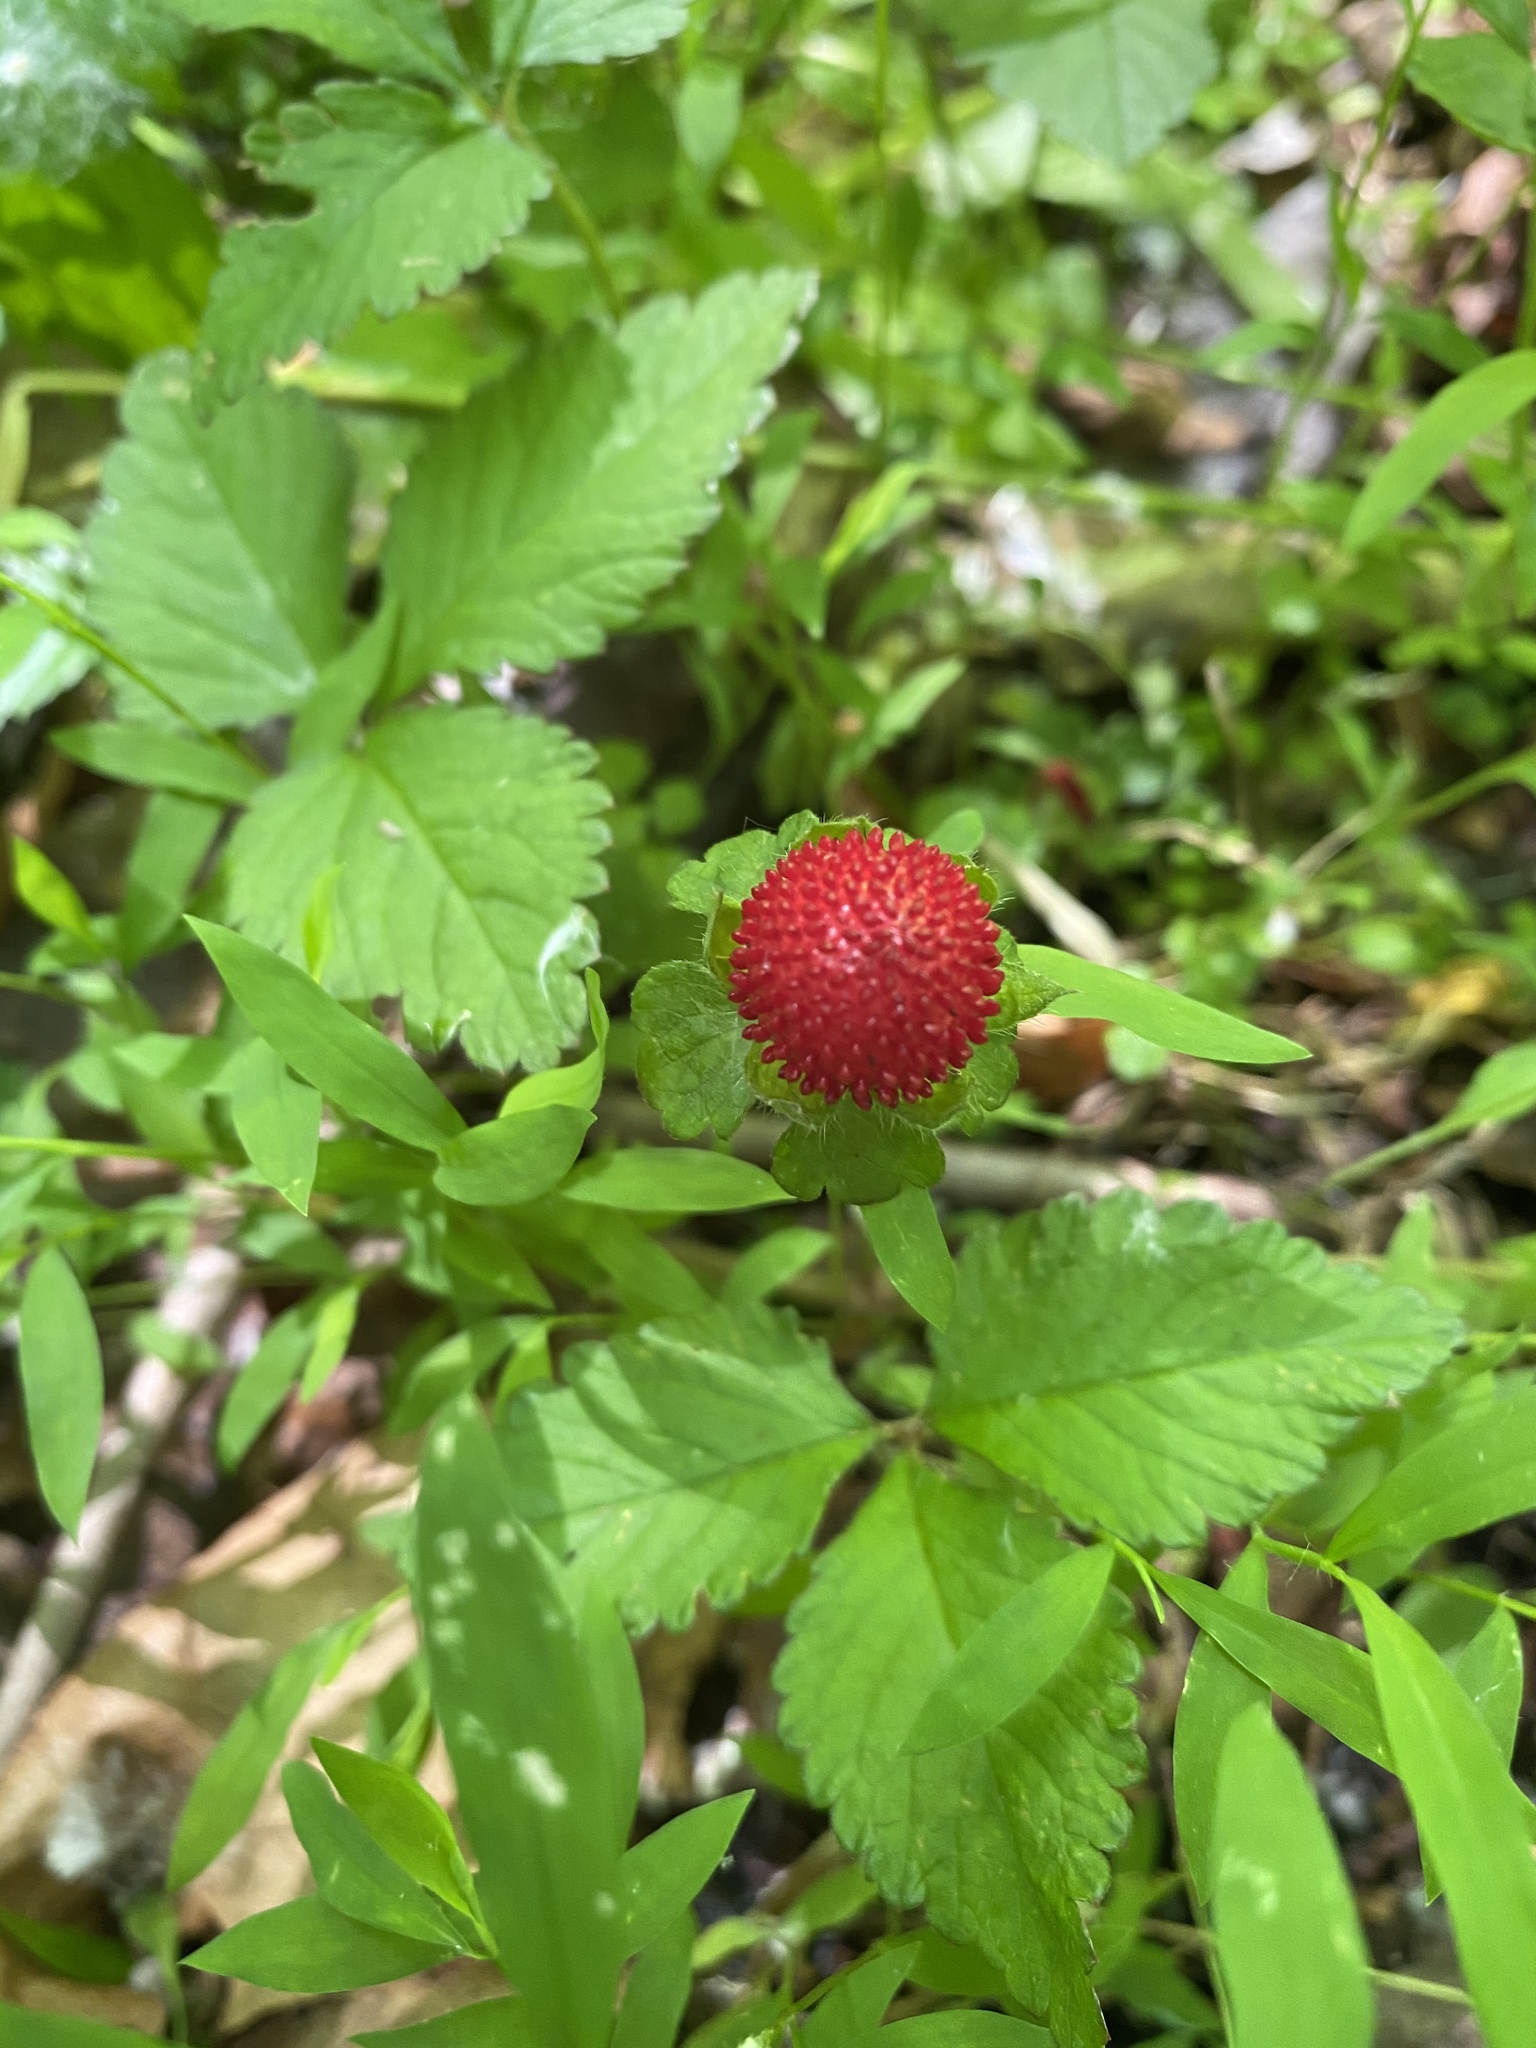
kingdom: Plantae
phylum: Tracheophyta
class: Magnoliopsida
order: Rosales
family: Rosaceae
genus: Potentilla
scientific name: Potentilla indica
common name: Yellow-flowered strawberry
